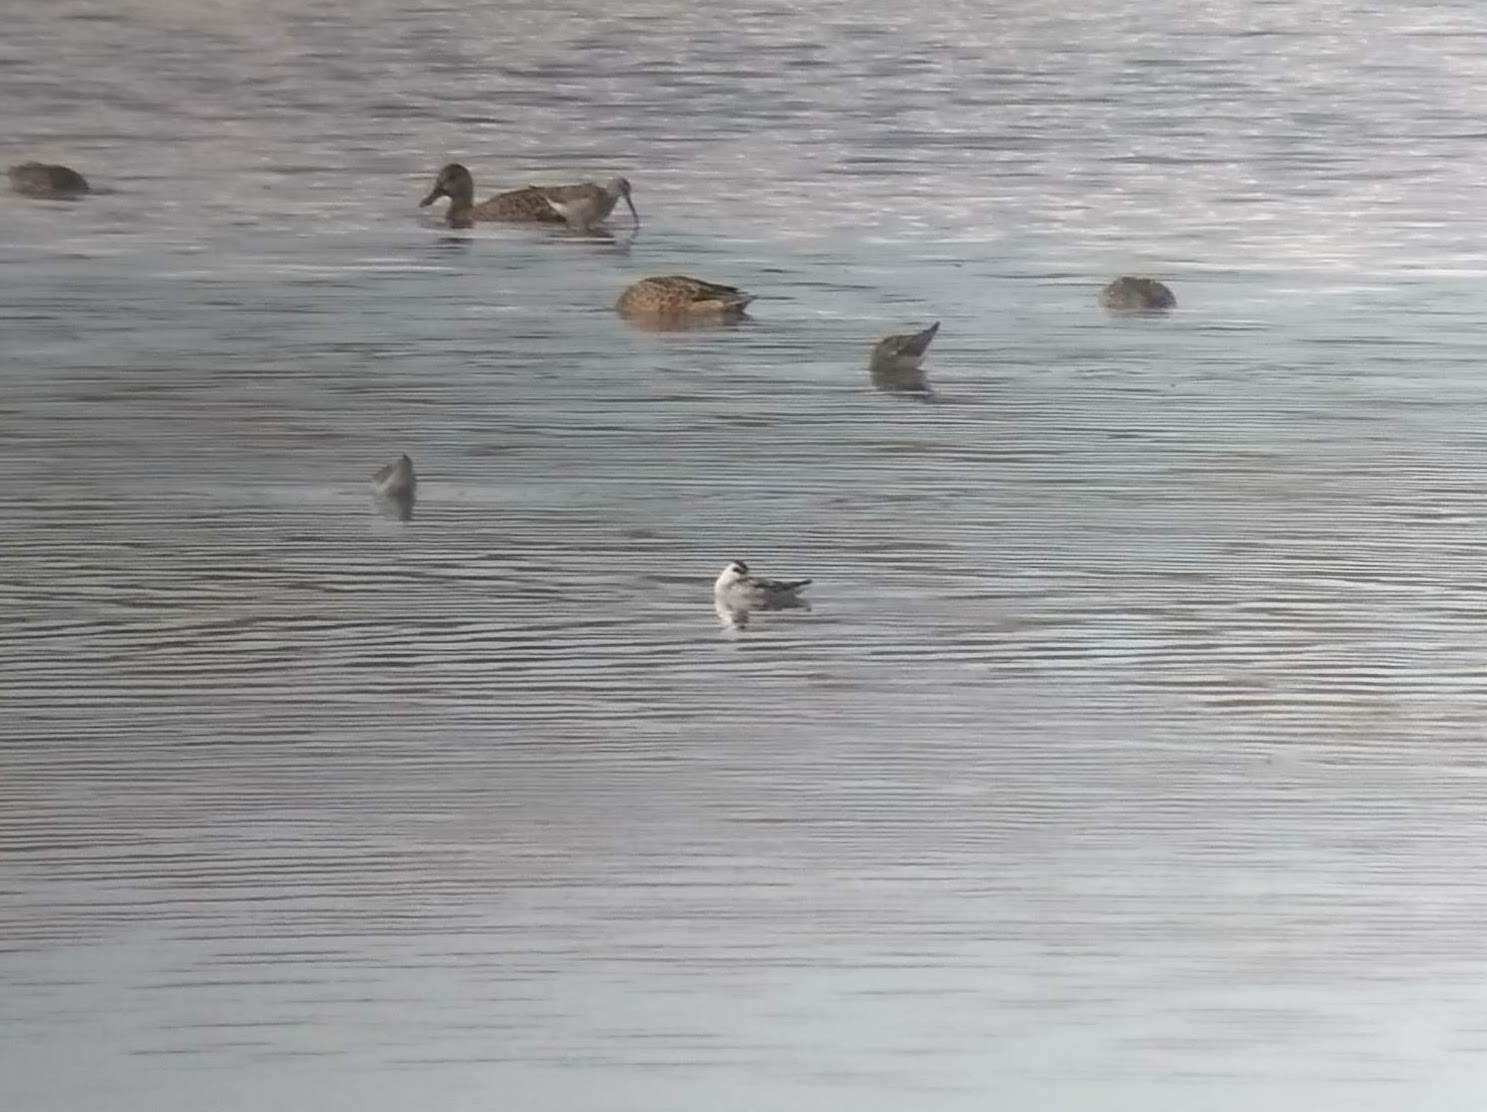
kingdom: Animalia
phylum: Chordata
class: Aves
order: Charadriiformes
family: Scolopacidae
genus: Phalaropus
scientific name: Phalaropus lobatus
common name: Red-necked phalarope
